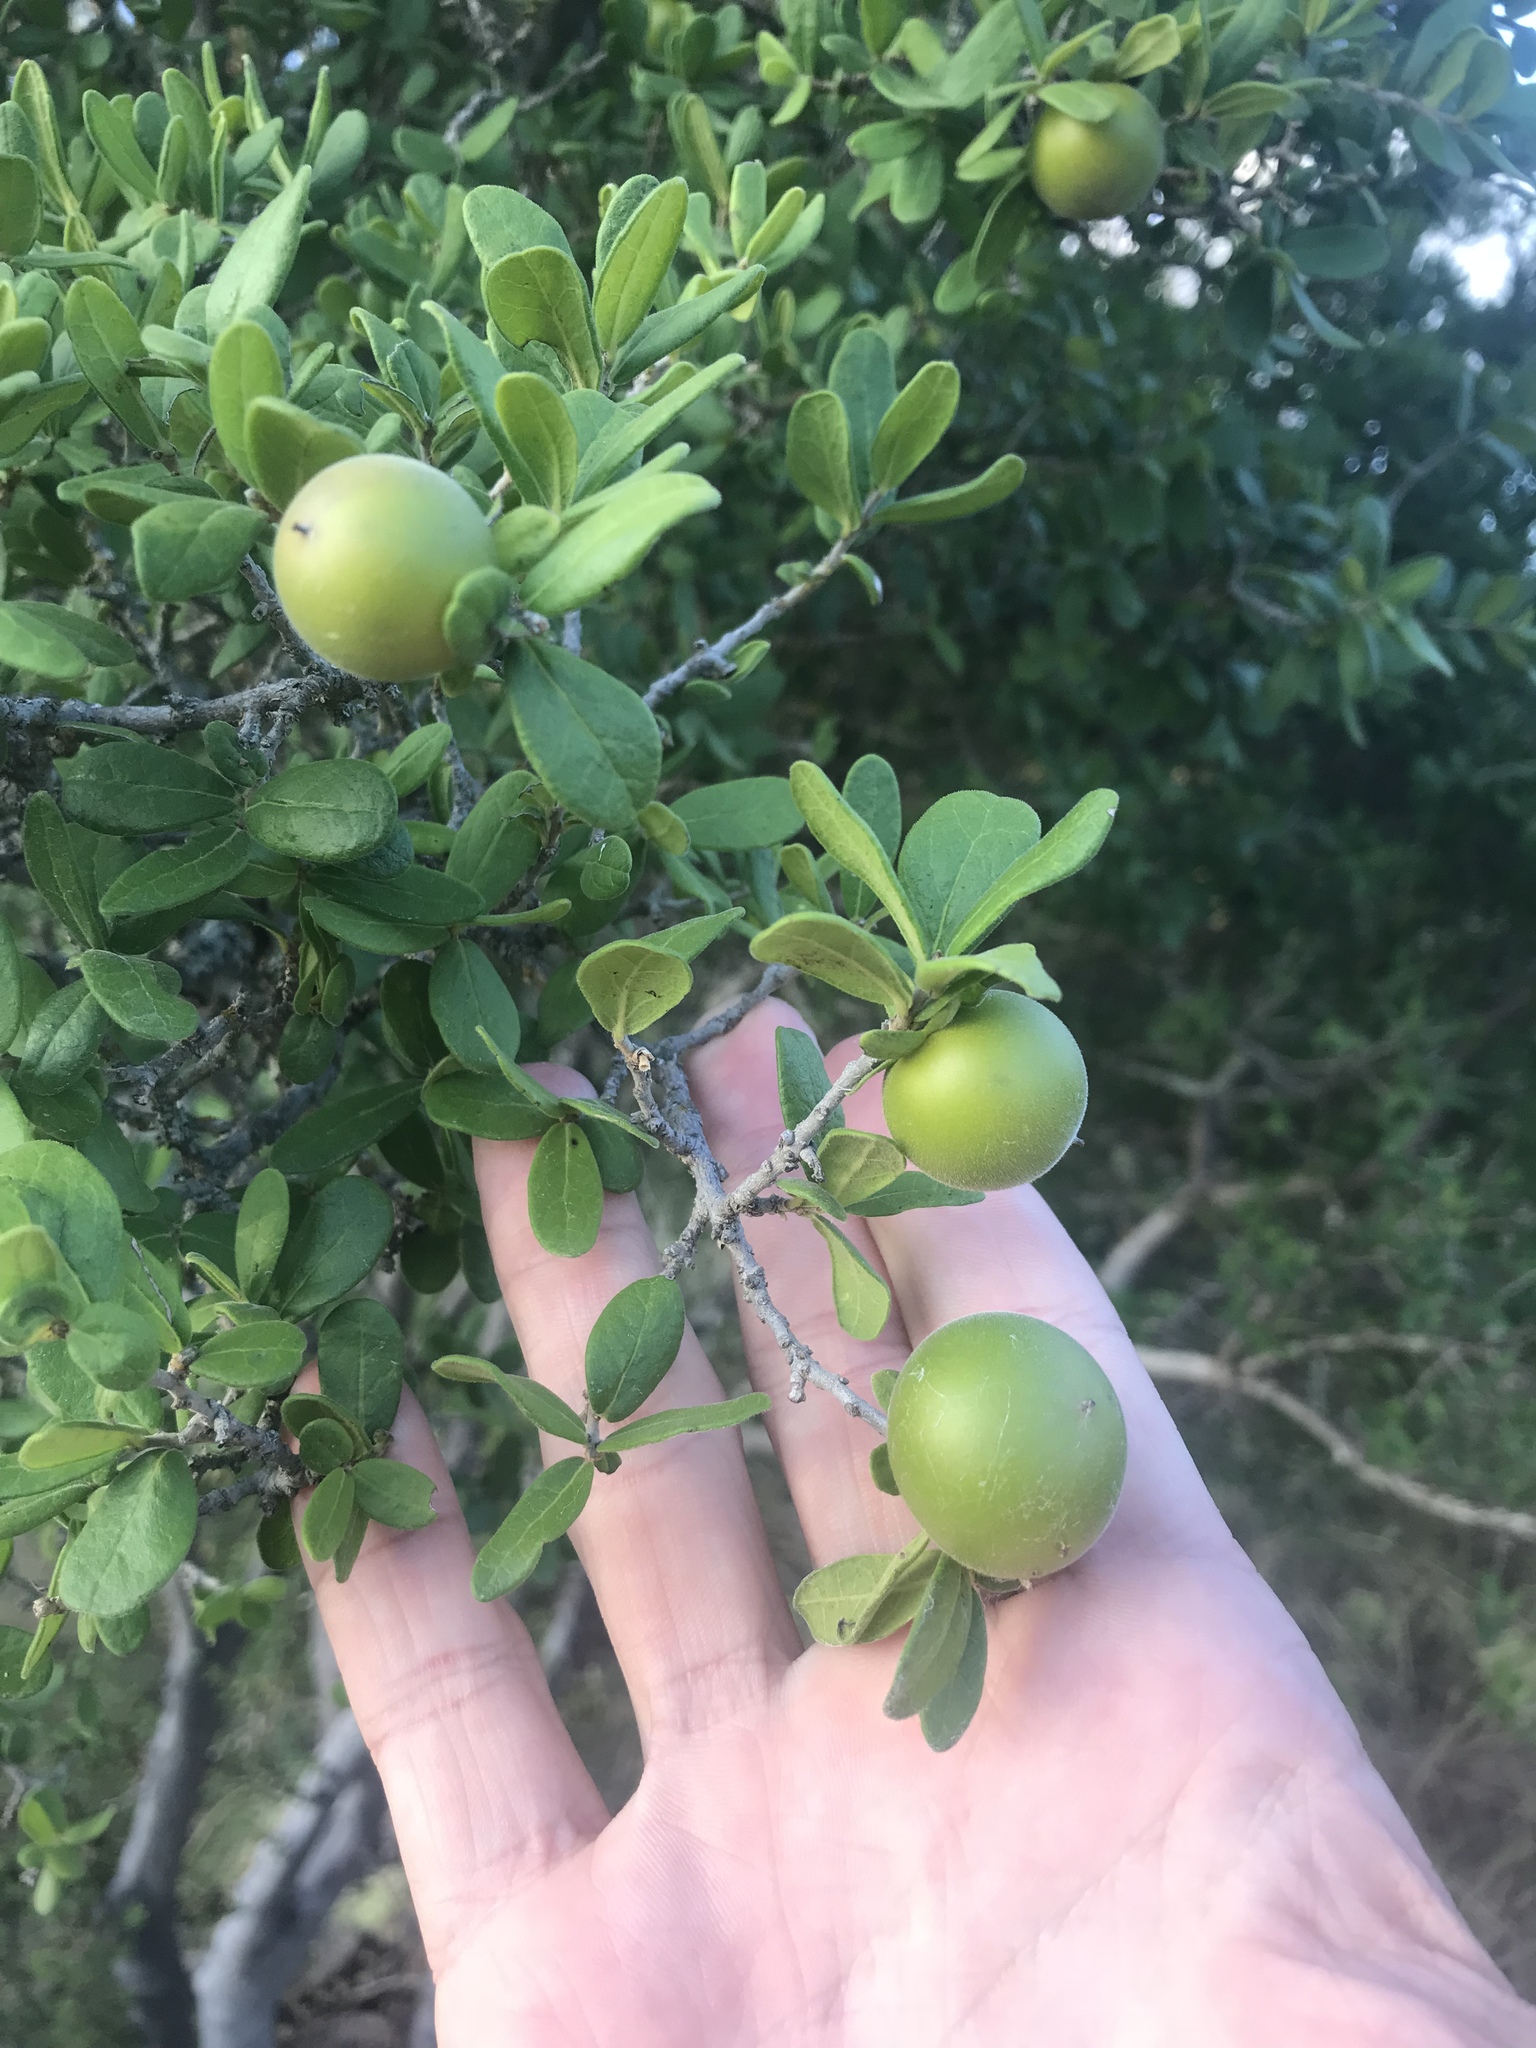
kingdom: Plantae
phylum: Tracheophyta
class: Magnoliopsida
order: Ericales
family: Ebenaceae
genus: Diospyros
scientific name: Diospyros texana
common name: Texas persimmon
